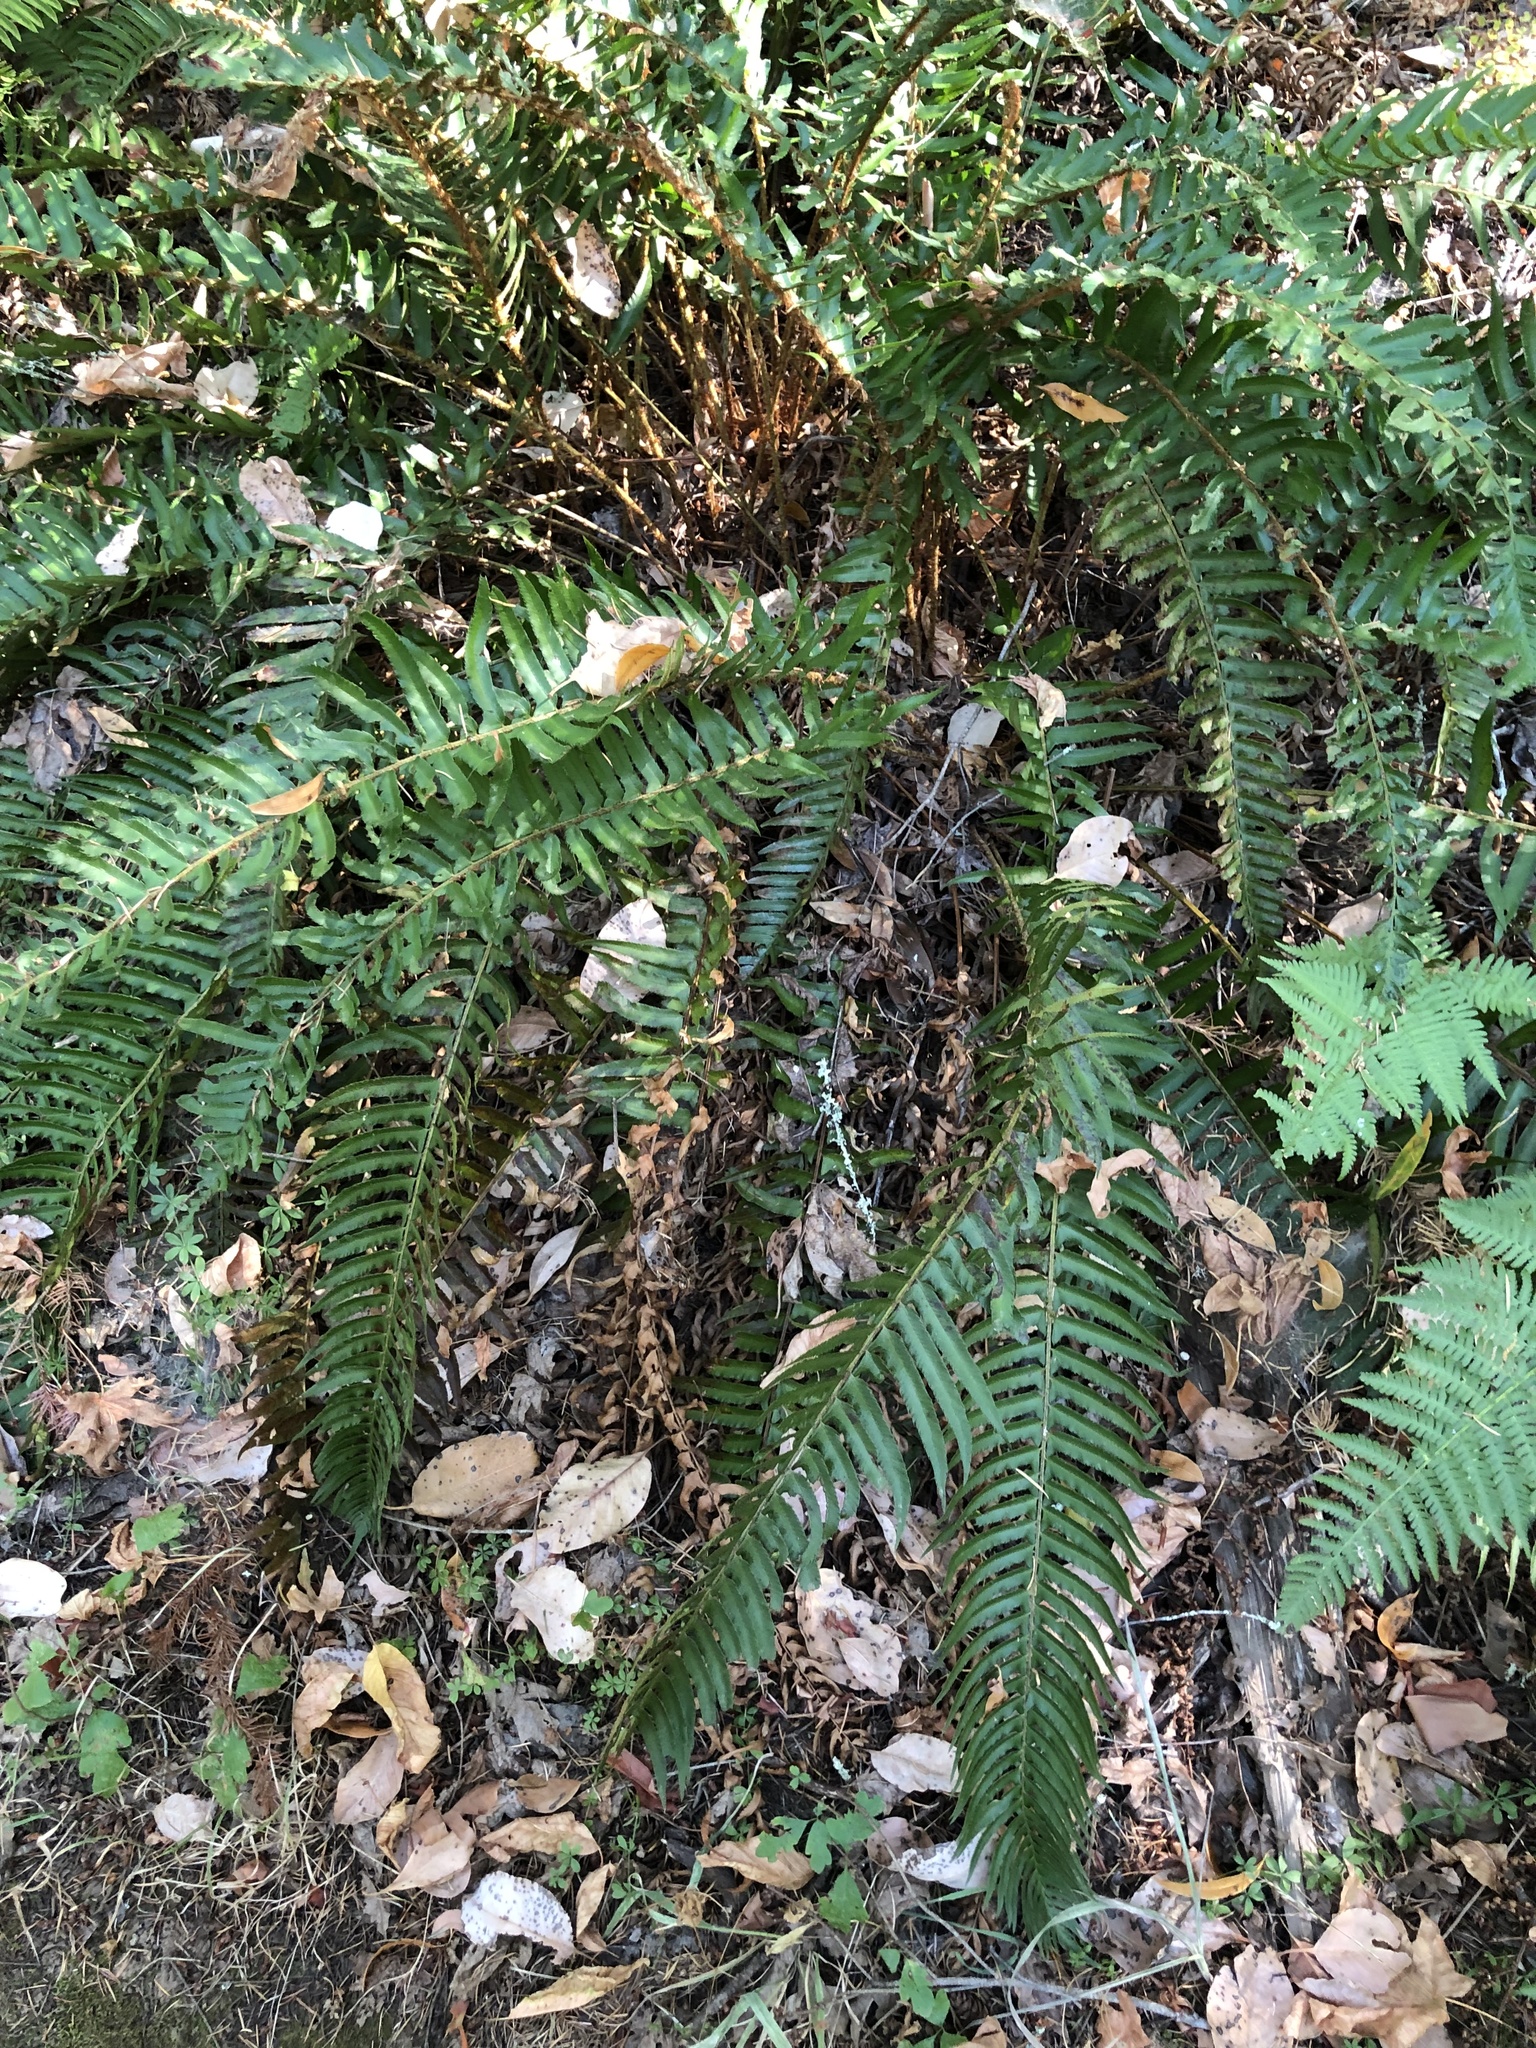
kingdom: Plantae
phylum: Tracheophyta
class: Polypodiopsida
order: Polypodiales
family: Dryopteridaceae
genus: Polystichum
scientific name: Polystichum munitum
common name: Western sword-fern
